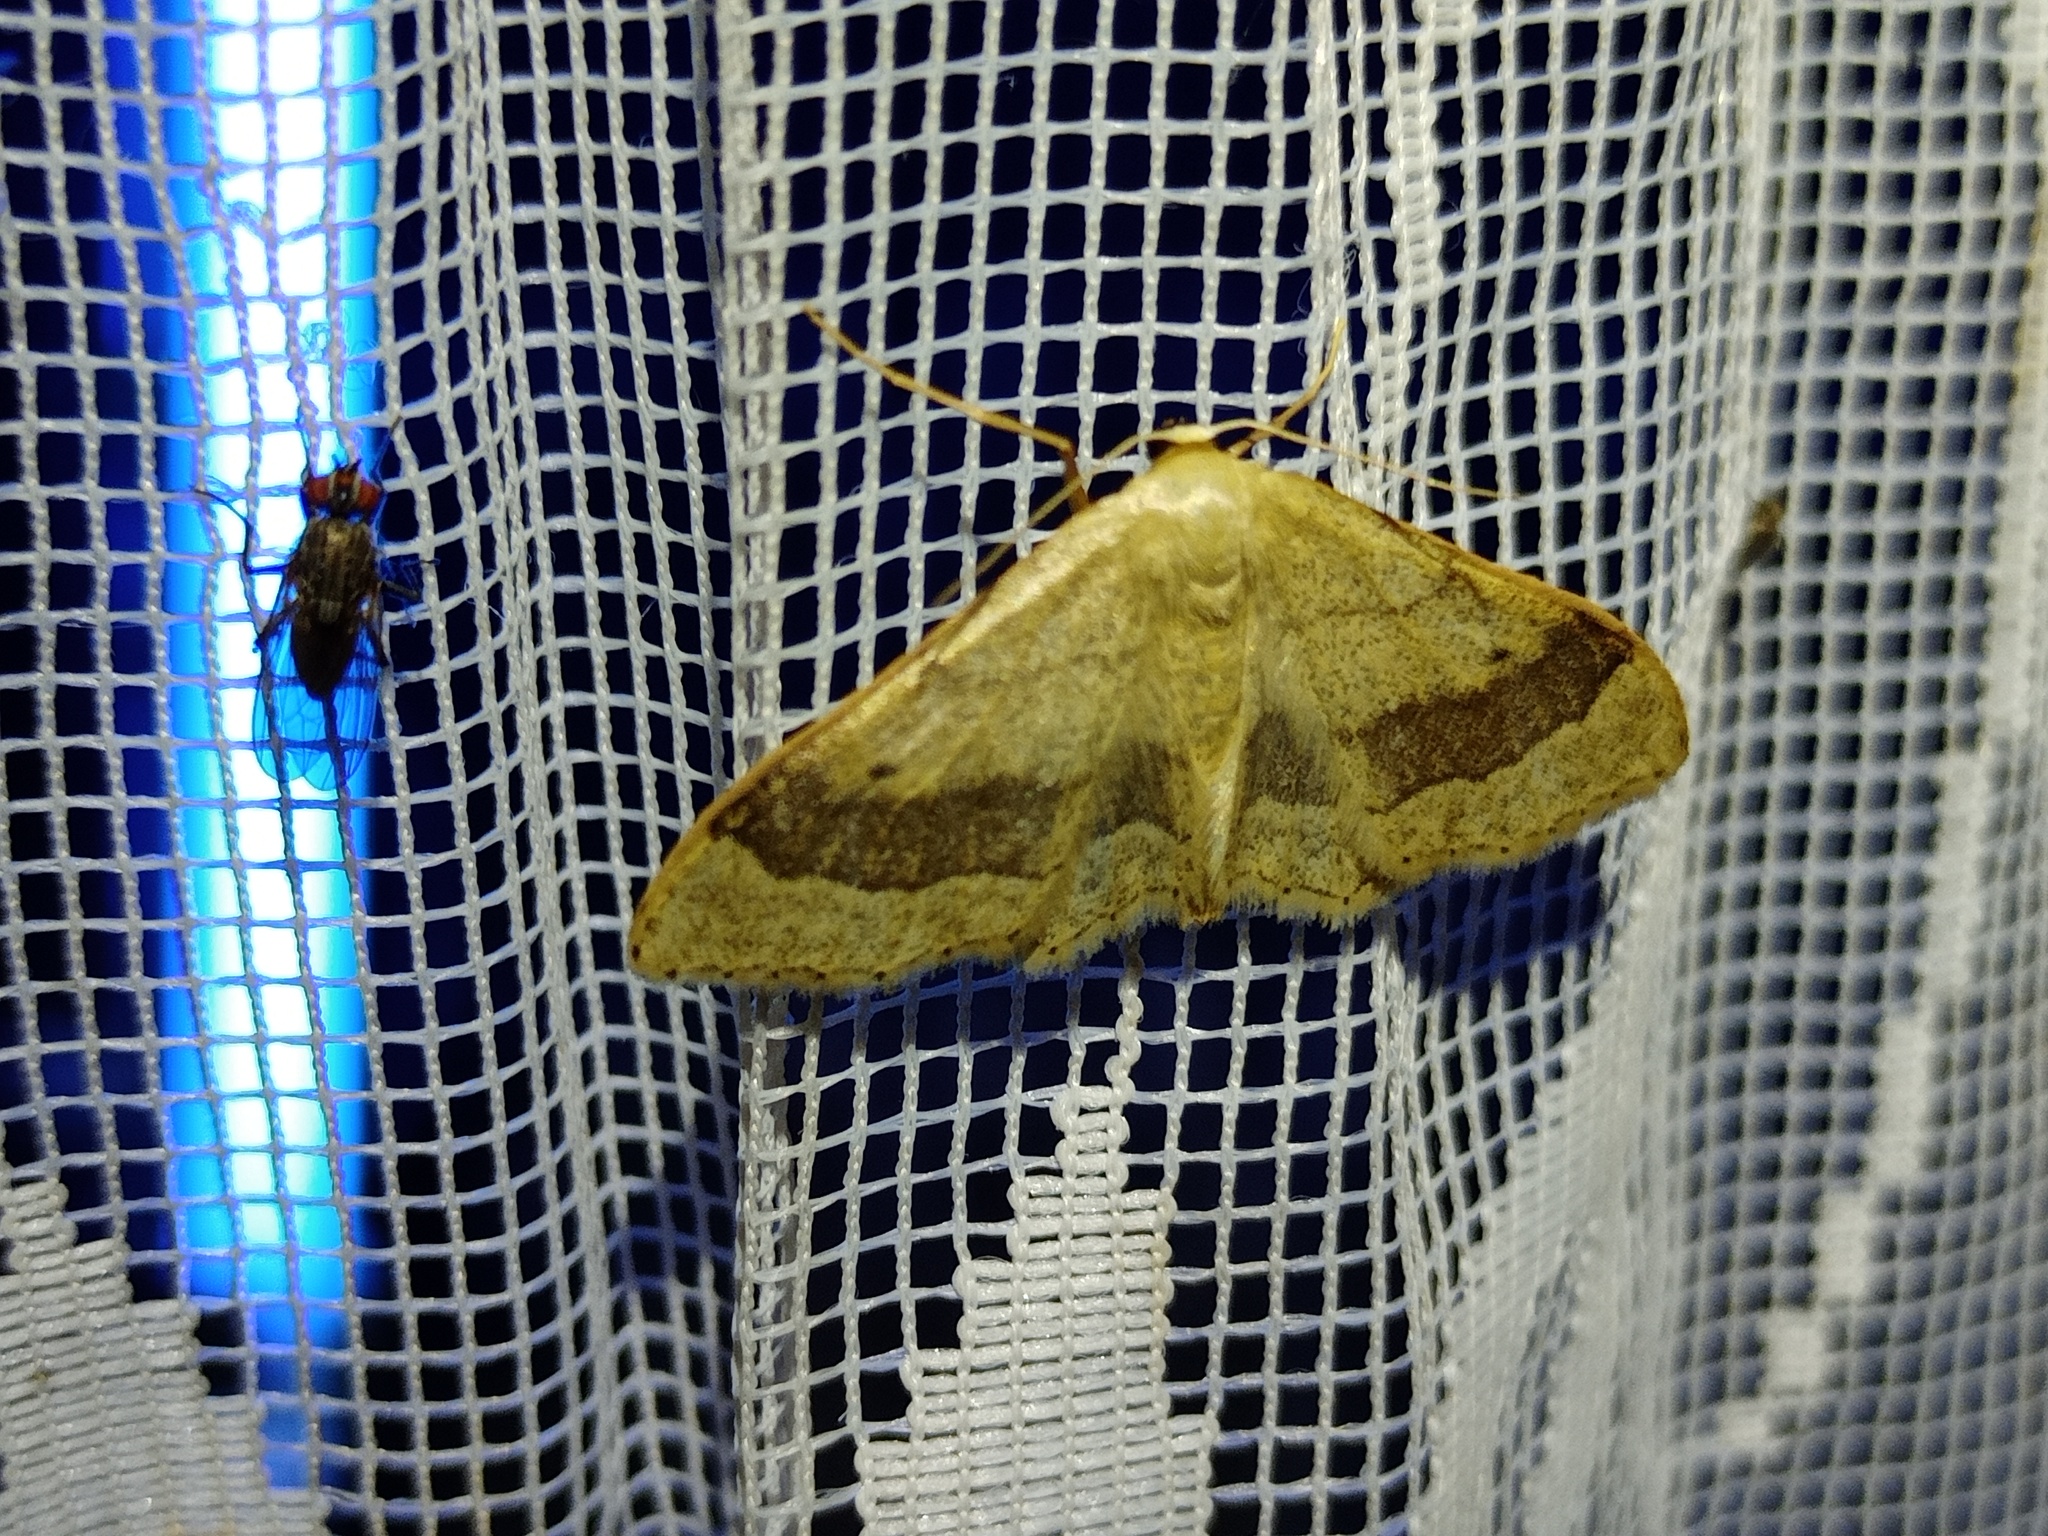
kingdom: Animalia
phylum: Arthropoda
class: Insecta
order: Lepidoptera
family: Geometridae
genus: Idaea
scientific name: Idaea aversata
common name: Riband wave
